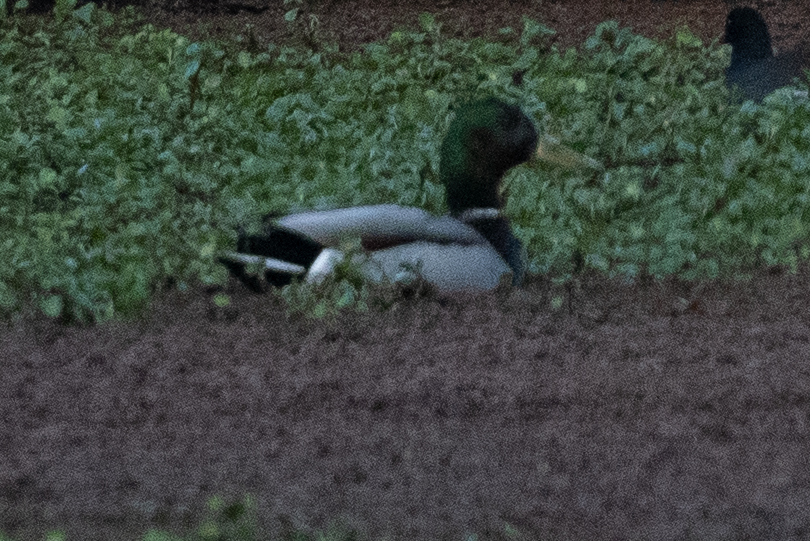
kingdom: Animalia
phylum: Chordata
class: Aves
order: Anseriformes
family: Anatidae
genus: Anas
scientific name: Anas platyrhynchos
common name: Mallard
